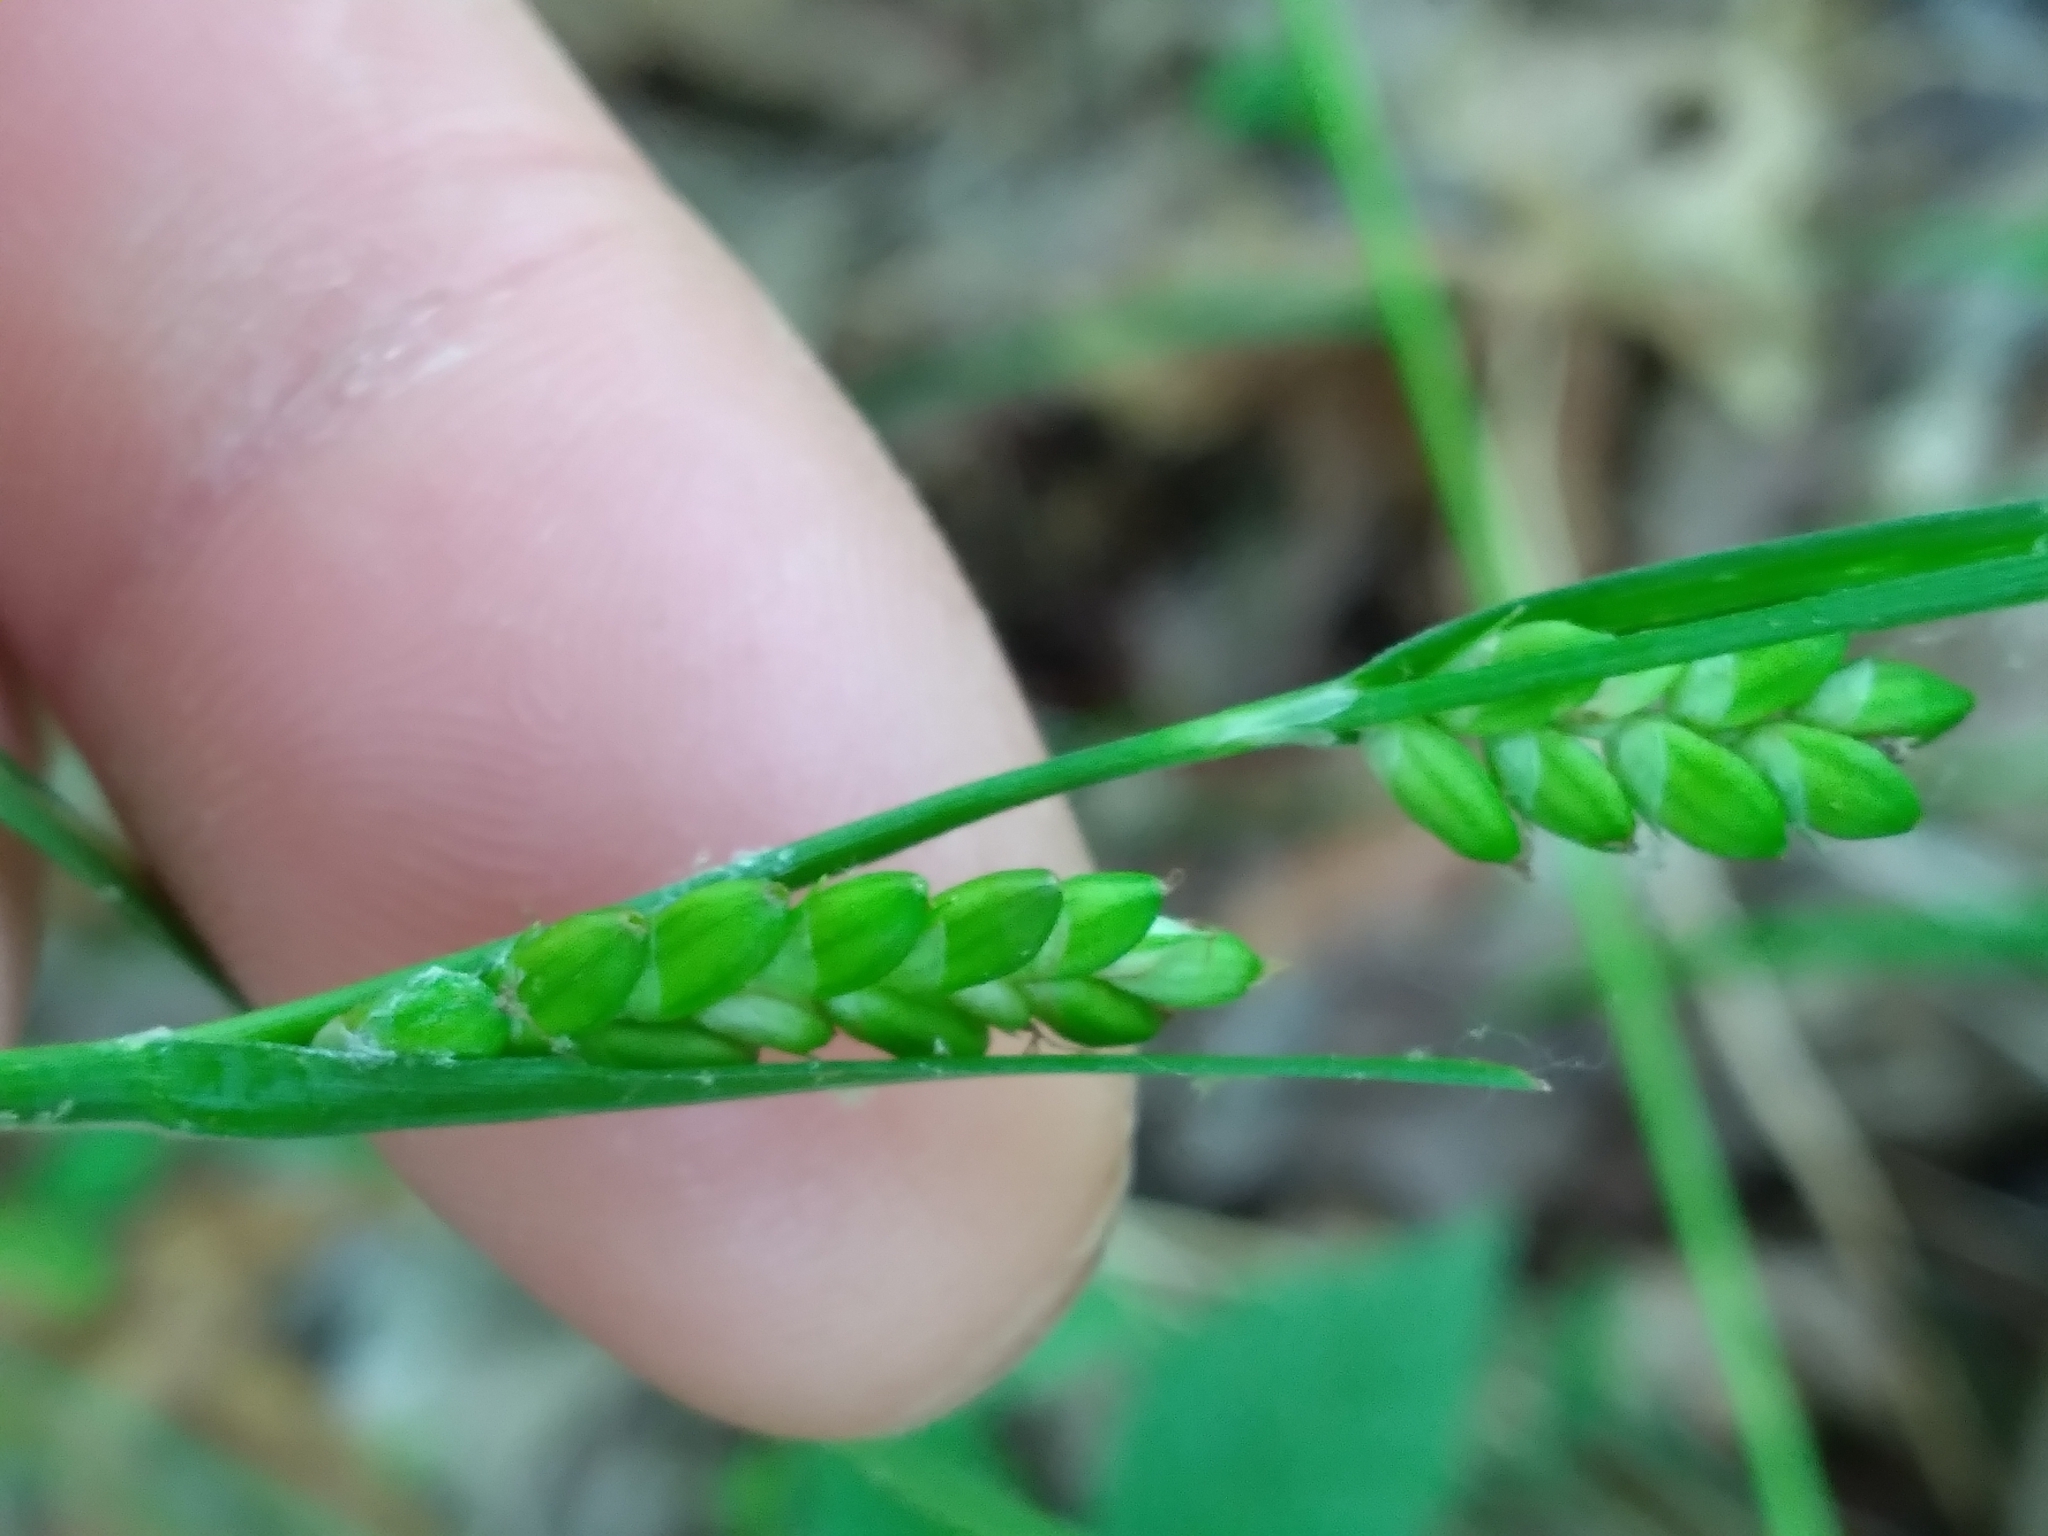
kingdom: Plantae
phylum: Tracheophyta
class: Liliopsida
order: Poales
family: Cyperaceae
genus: Carex
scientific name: Carex planispicata
